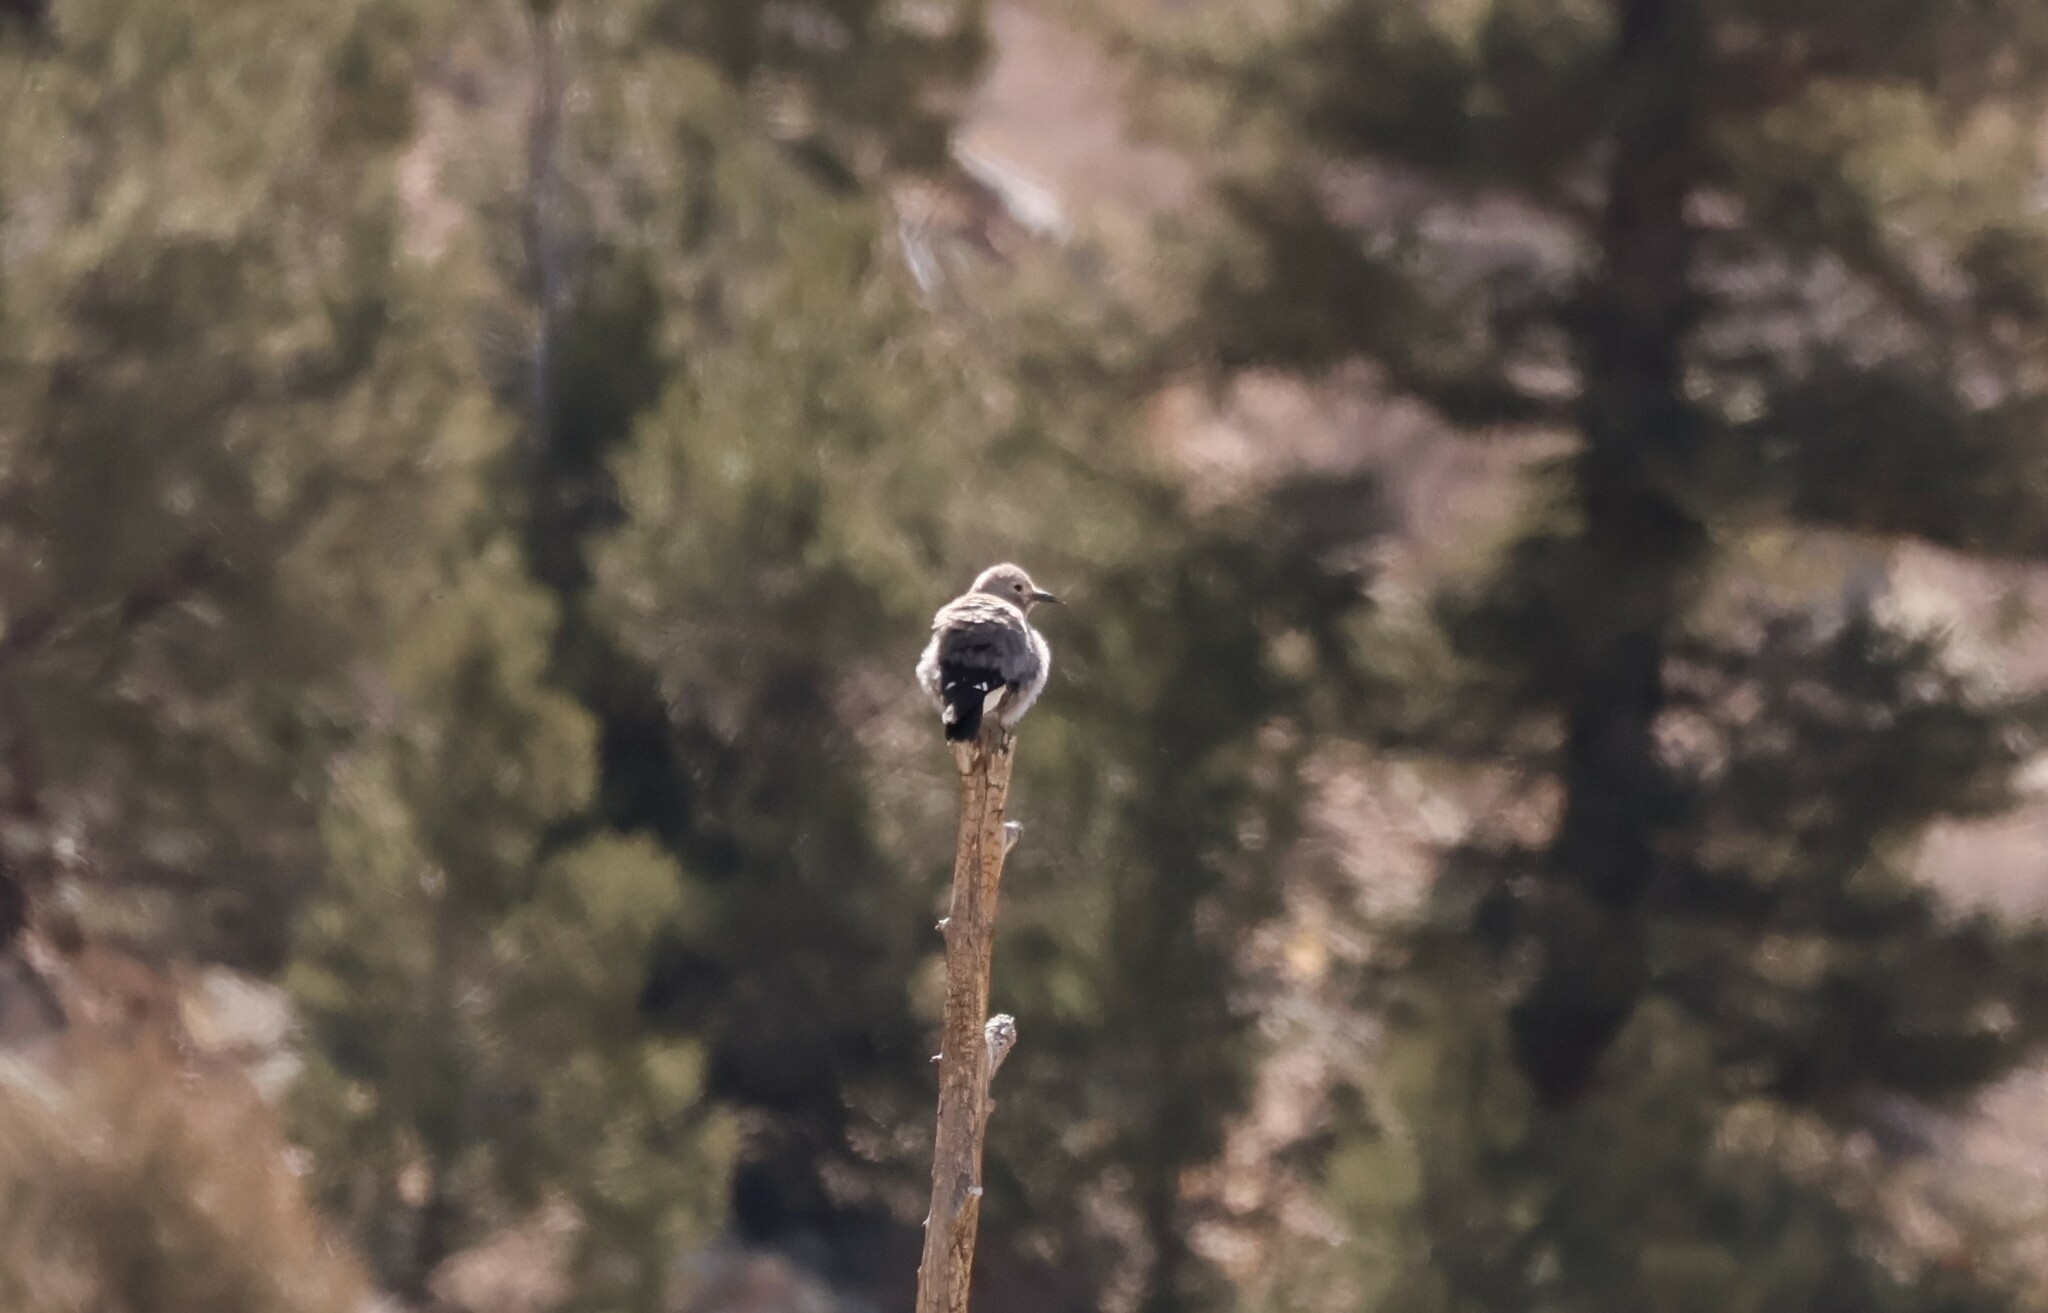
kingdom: Animalia
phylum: Chordata
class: Aves
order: Passeriformes
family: Corvidae
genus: Nucifraga
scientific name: Nucifraga columbiana
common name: Clark's nutcracker
